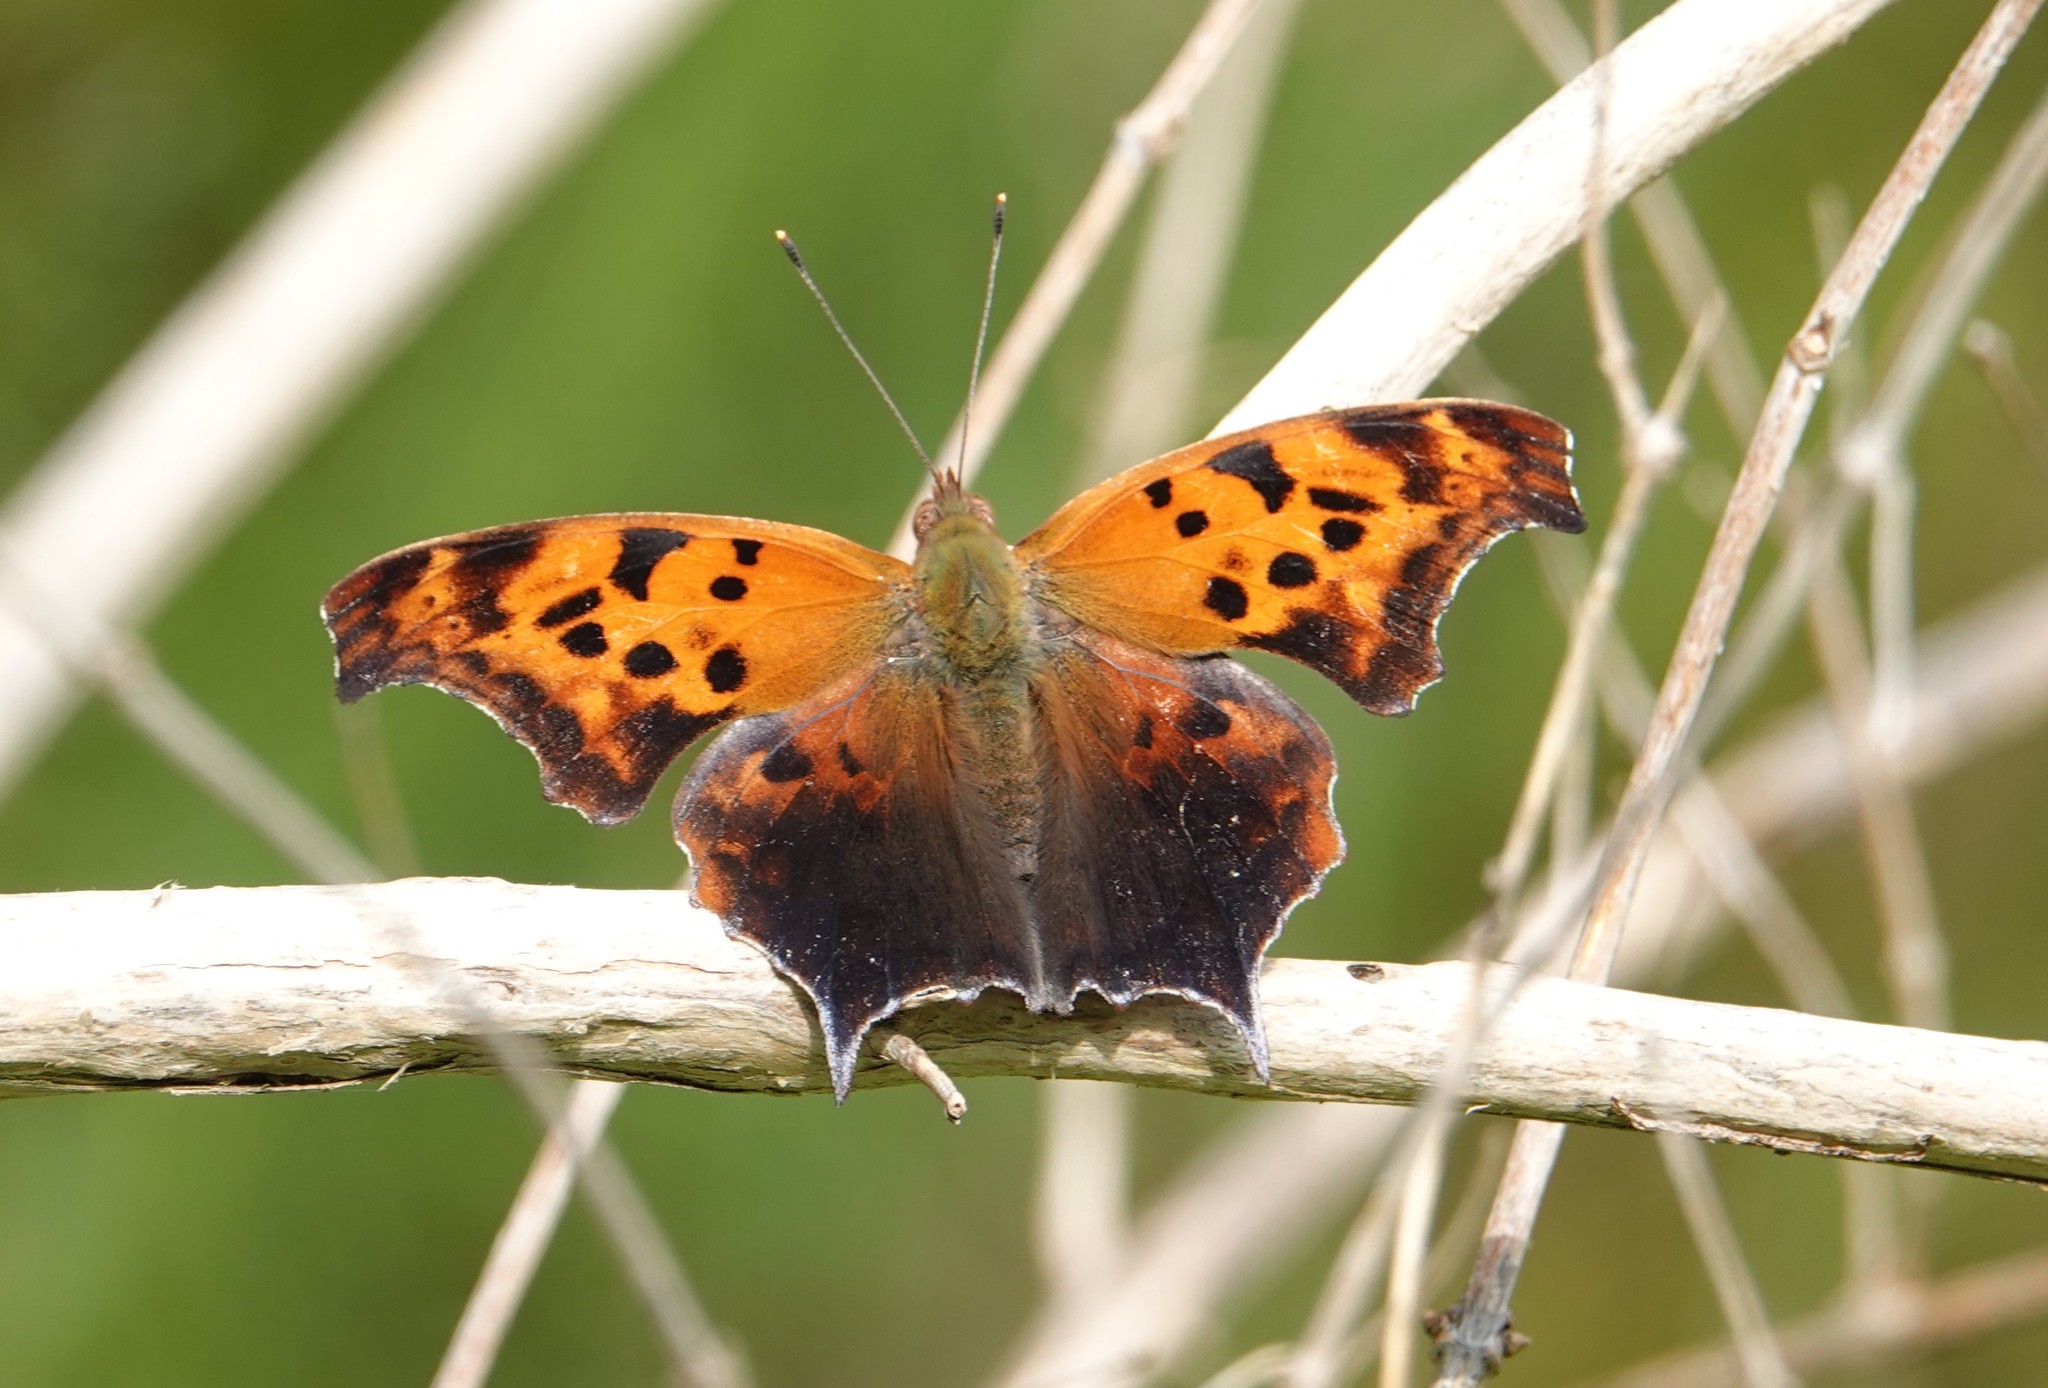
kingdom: Animalia
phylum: Arthropoda
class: Insecta
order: Lepidoptera
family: Nymphalidae
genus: Polygonia
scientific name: Polygonia interrogationis
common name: Question mark
